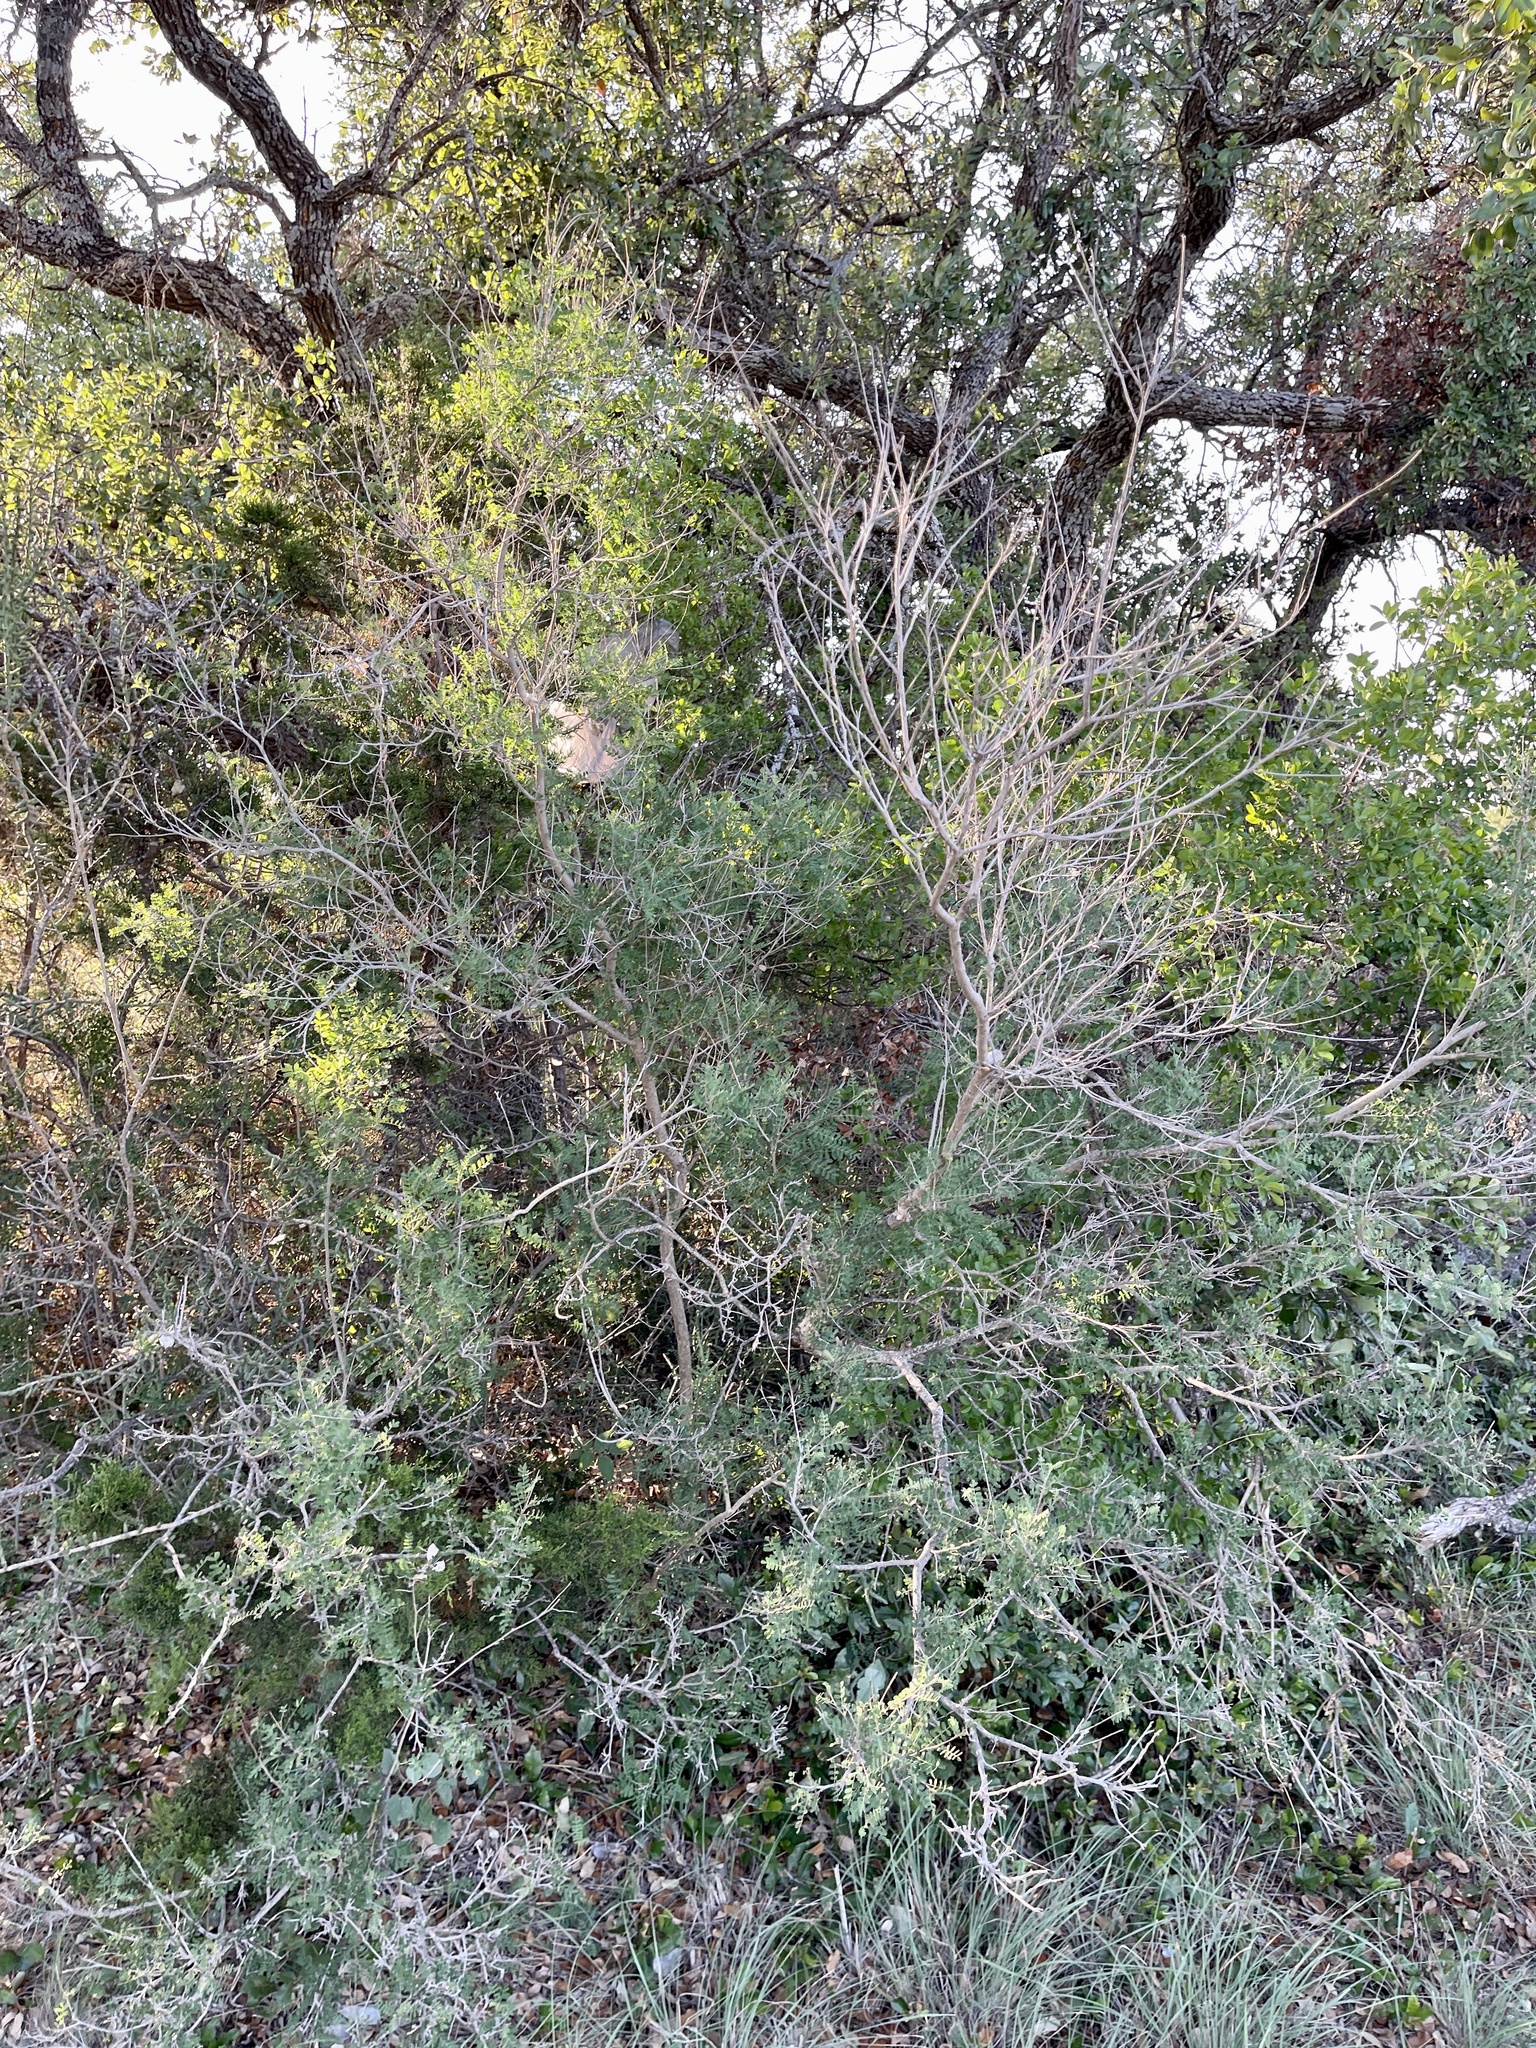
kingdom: Plantae
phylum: Tracheophyta
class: Magnoliopsida
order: Fabales
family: Fabaceae
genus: Eysenhardtia
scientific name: Eysenhardtia texana
